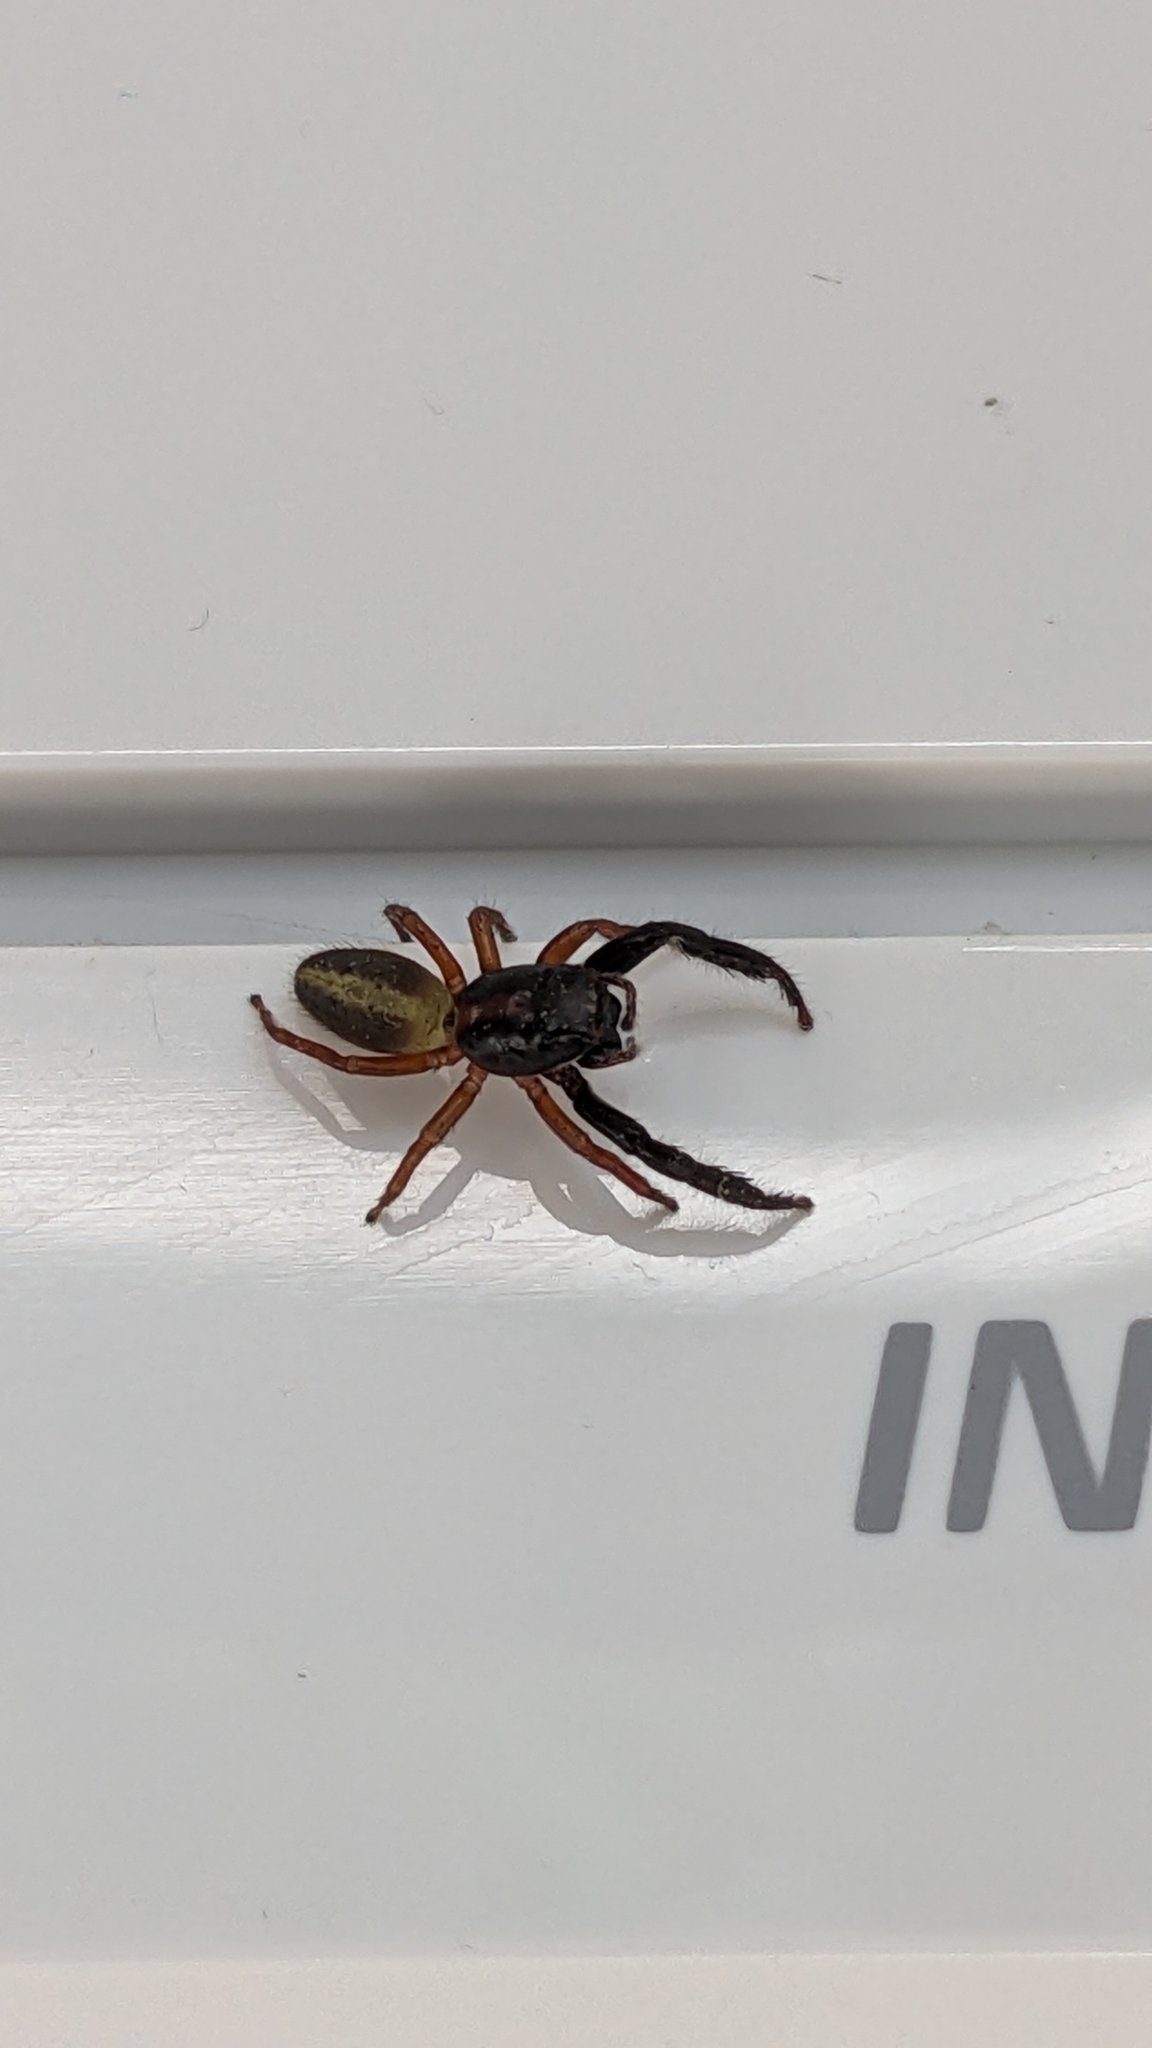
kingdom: Animalia
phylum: Arthropoda
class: Arachnida
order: Araneae
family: Salticidae
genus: Trite
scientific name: Trite planiceps
